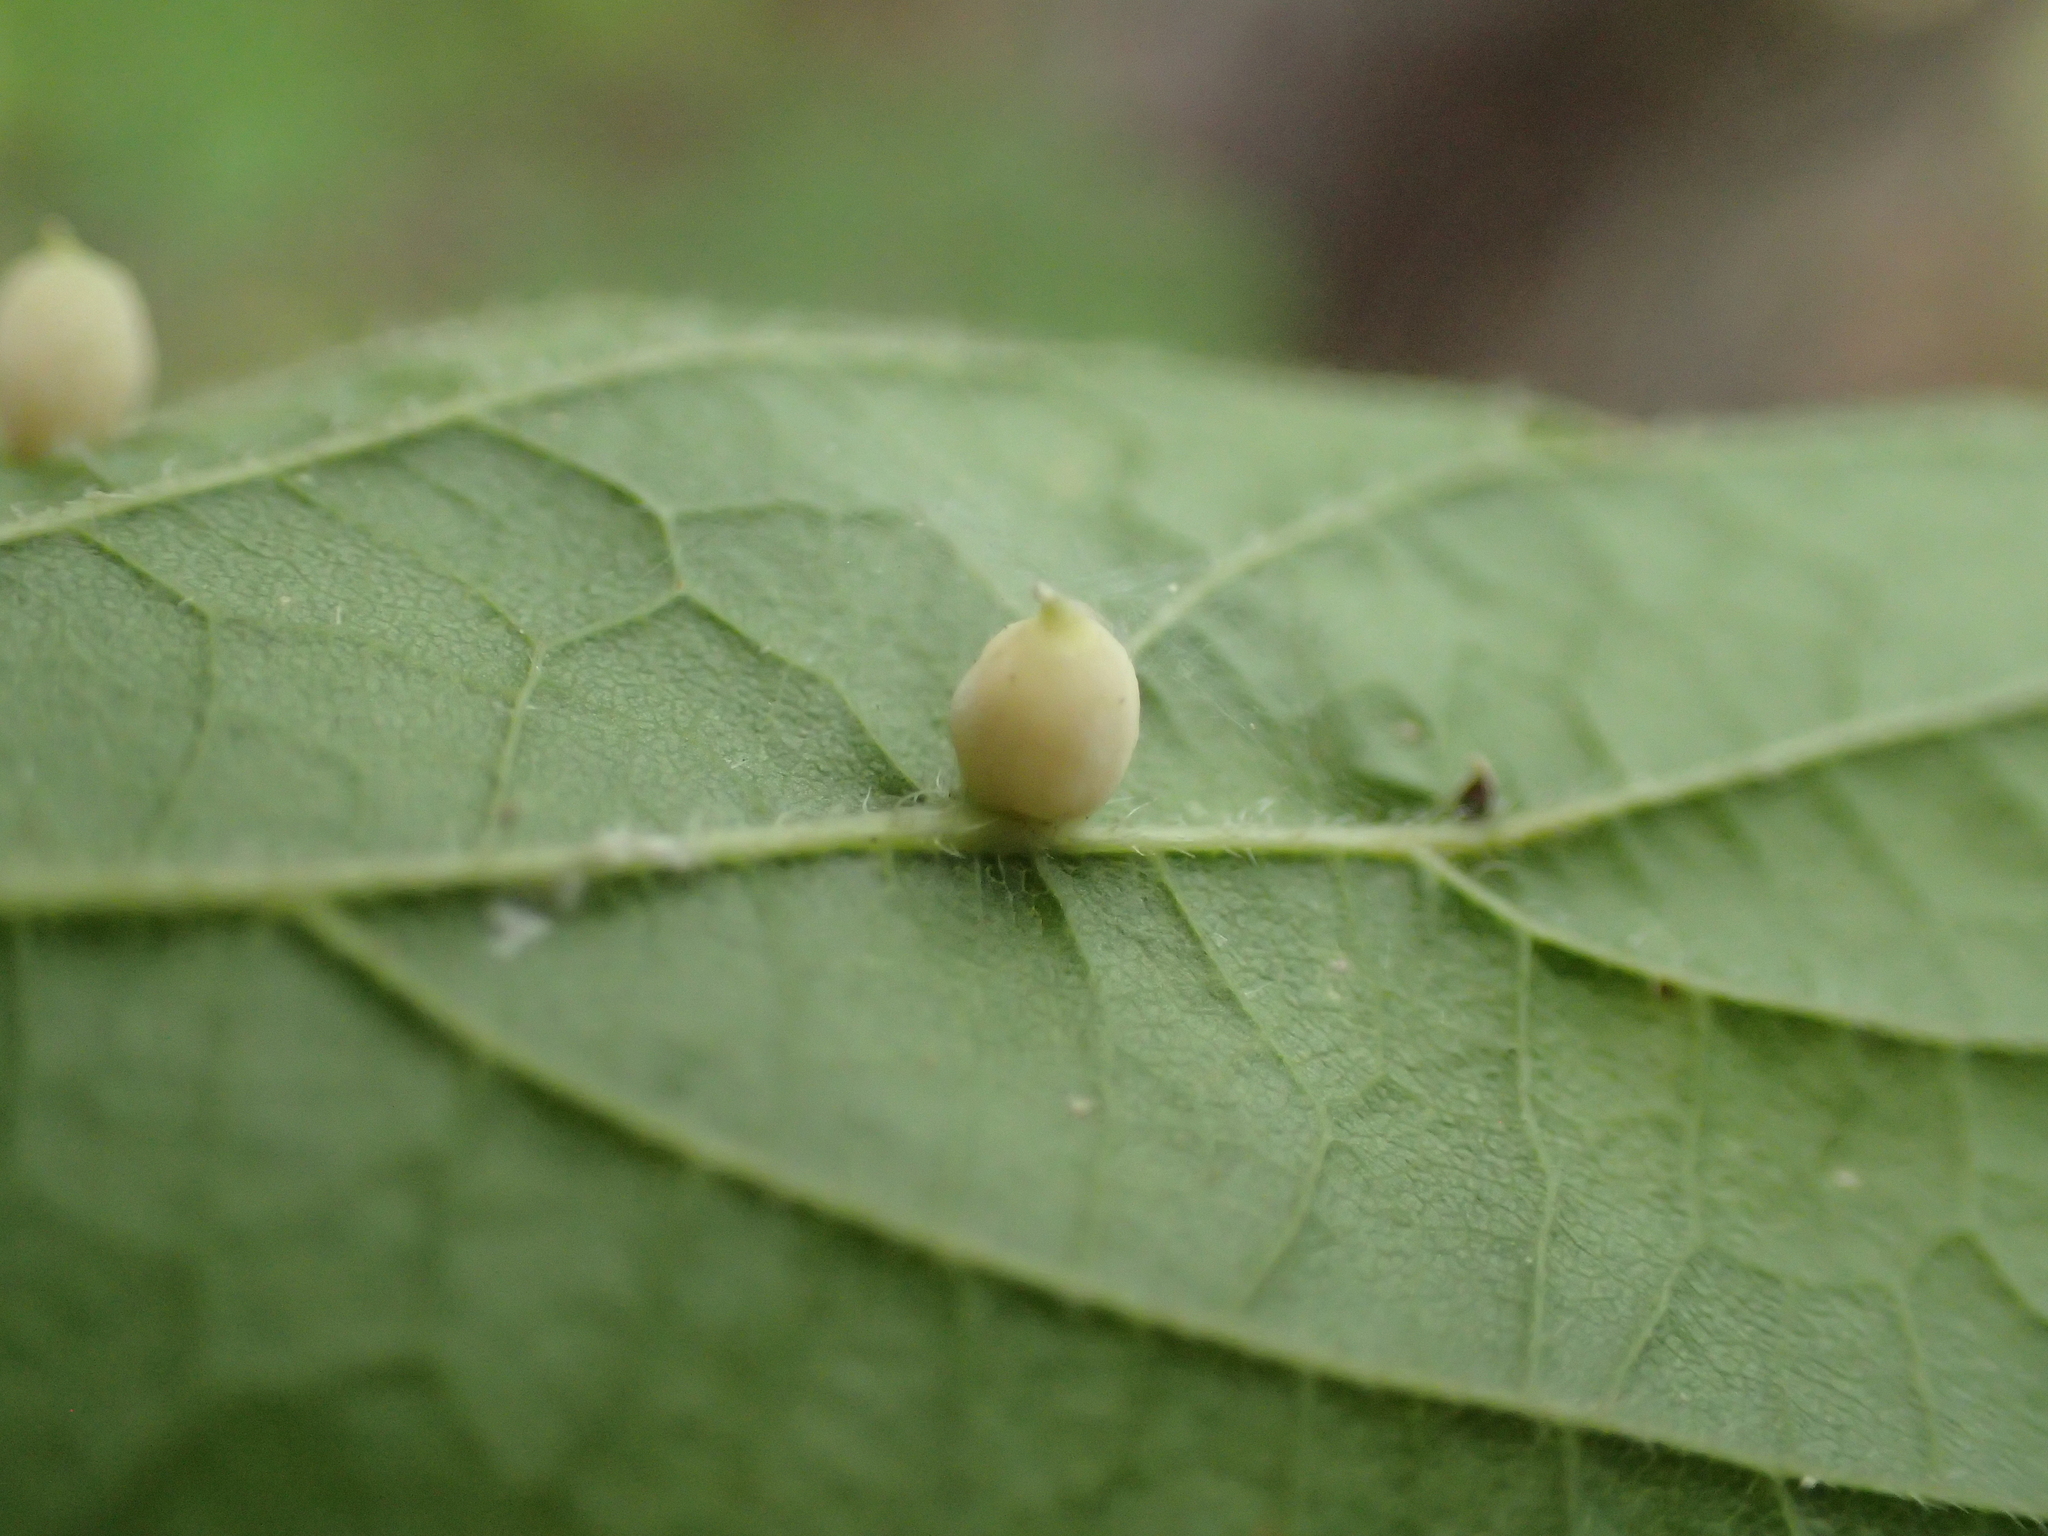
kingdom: Animalia
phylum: Arthropoda
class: Insecta
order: Diptera
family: Cecidomyiidae
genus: Celticecis
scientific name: Celticecis globosa
